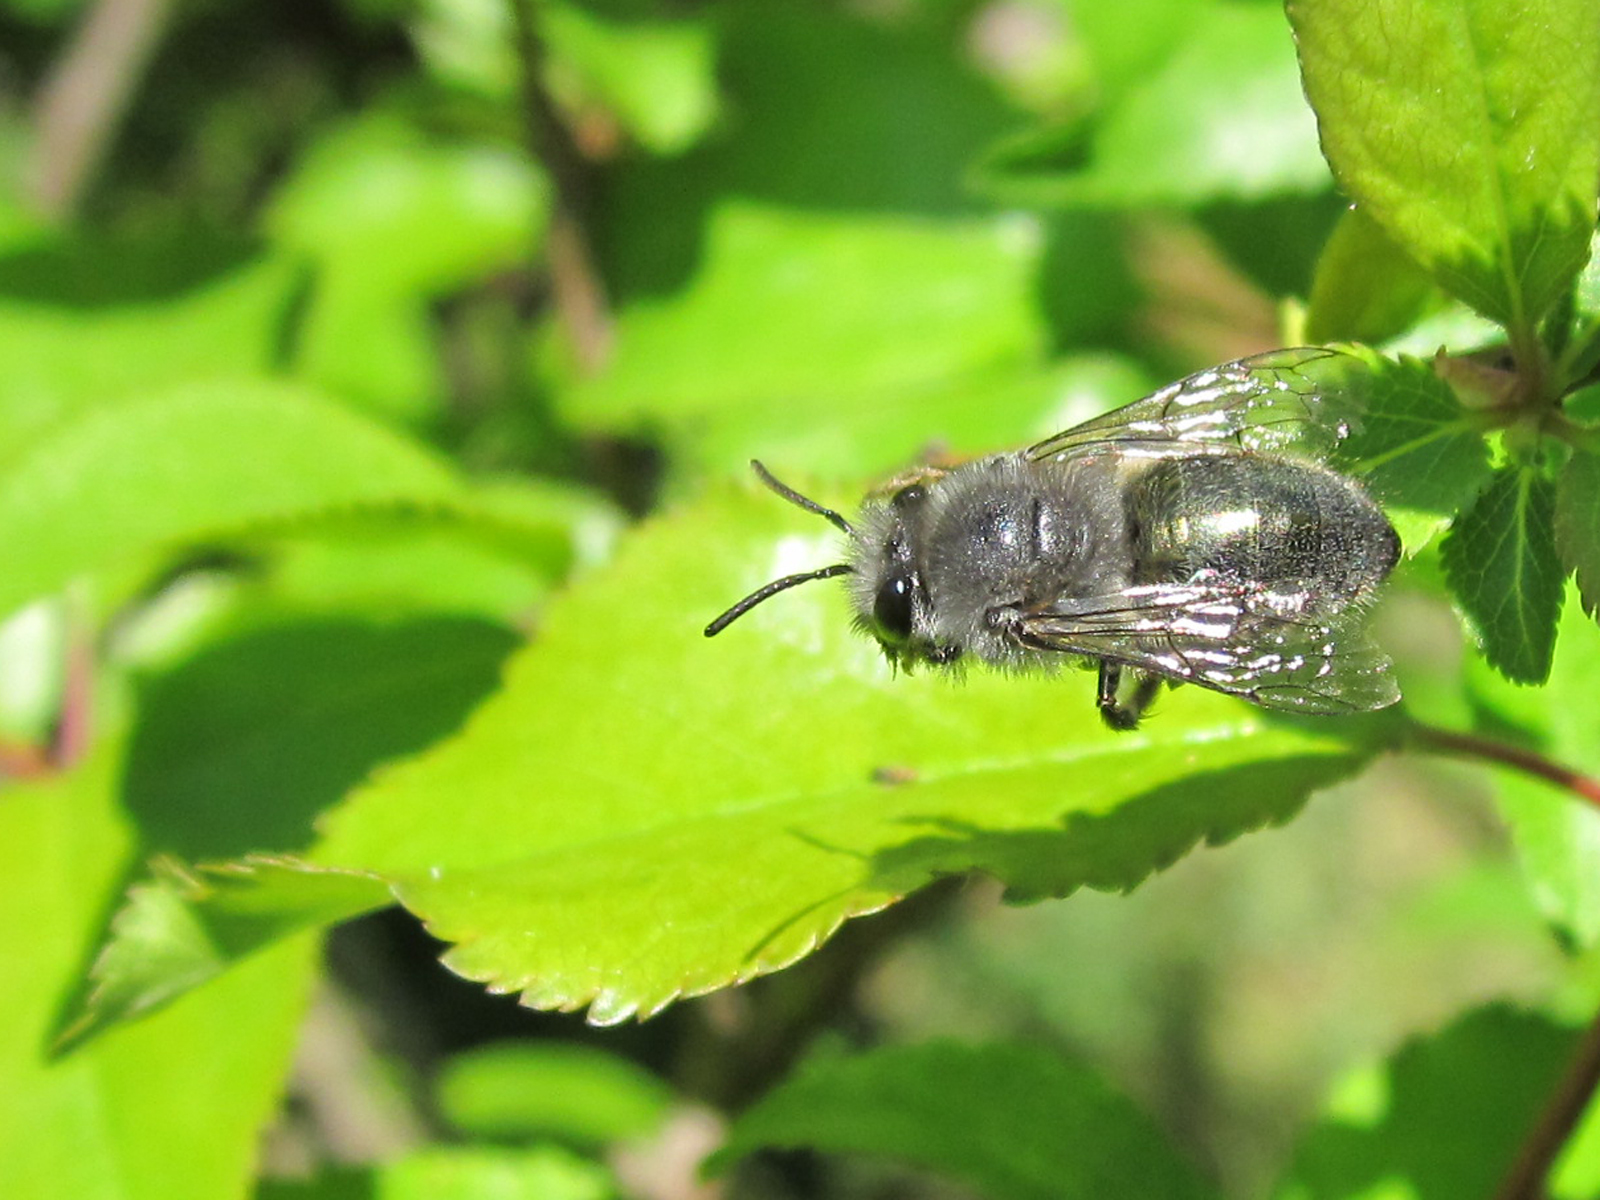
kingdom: Animalia
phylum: Arthropoda
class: Insecta
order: Hymenoptera
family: Colletidae
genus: Colletes
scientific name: Colletes cyanescens
